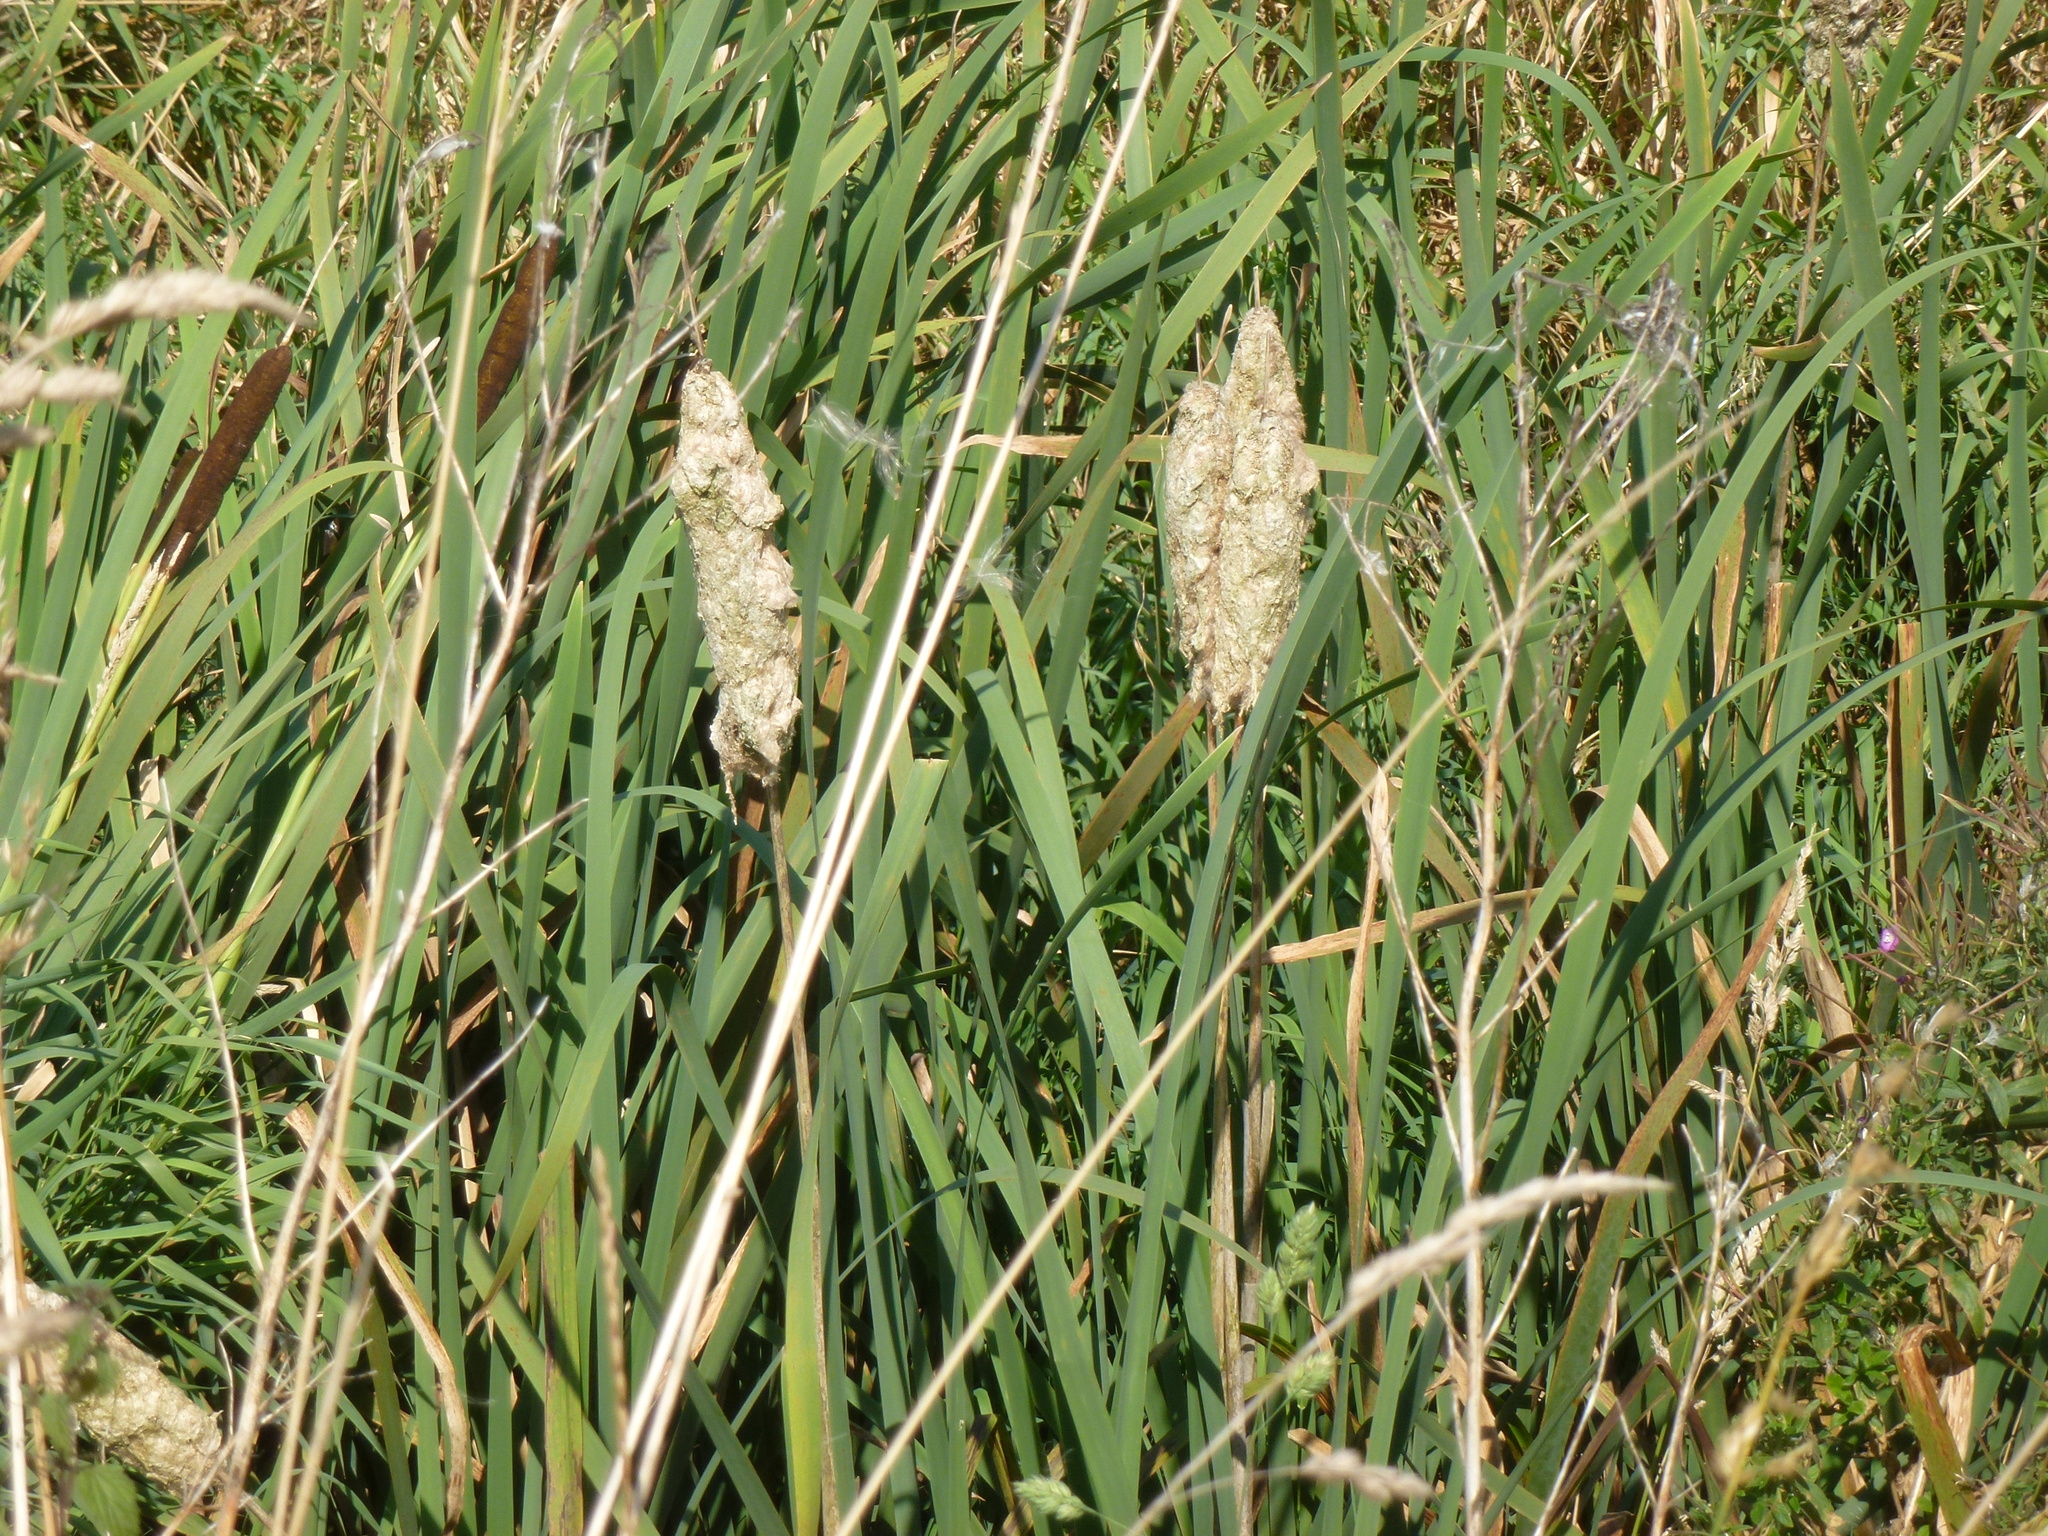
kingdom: Plantae
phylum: Tracheophyta
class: Liliopsida
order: Poales
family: Typhaceae
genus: Typha
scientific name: Typha latifolia
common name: Broadleaf cattail
